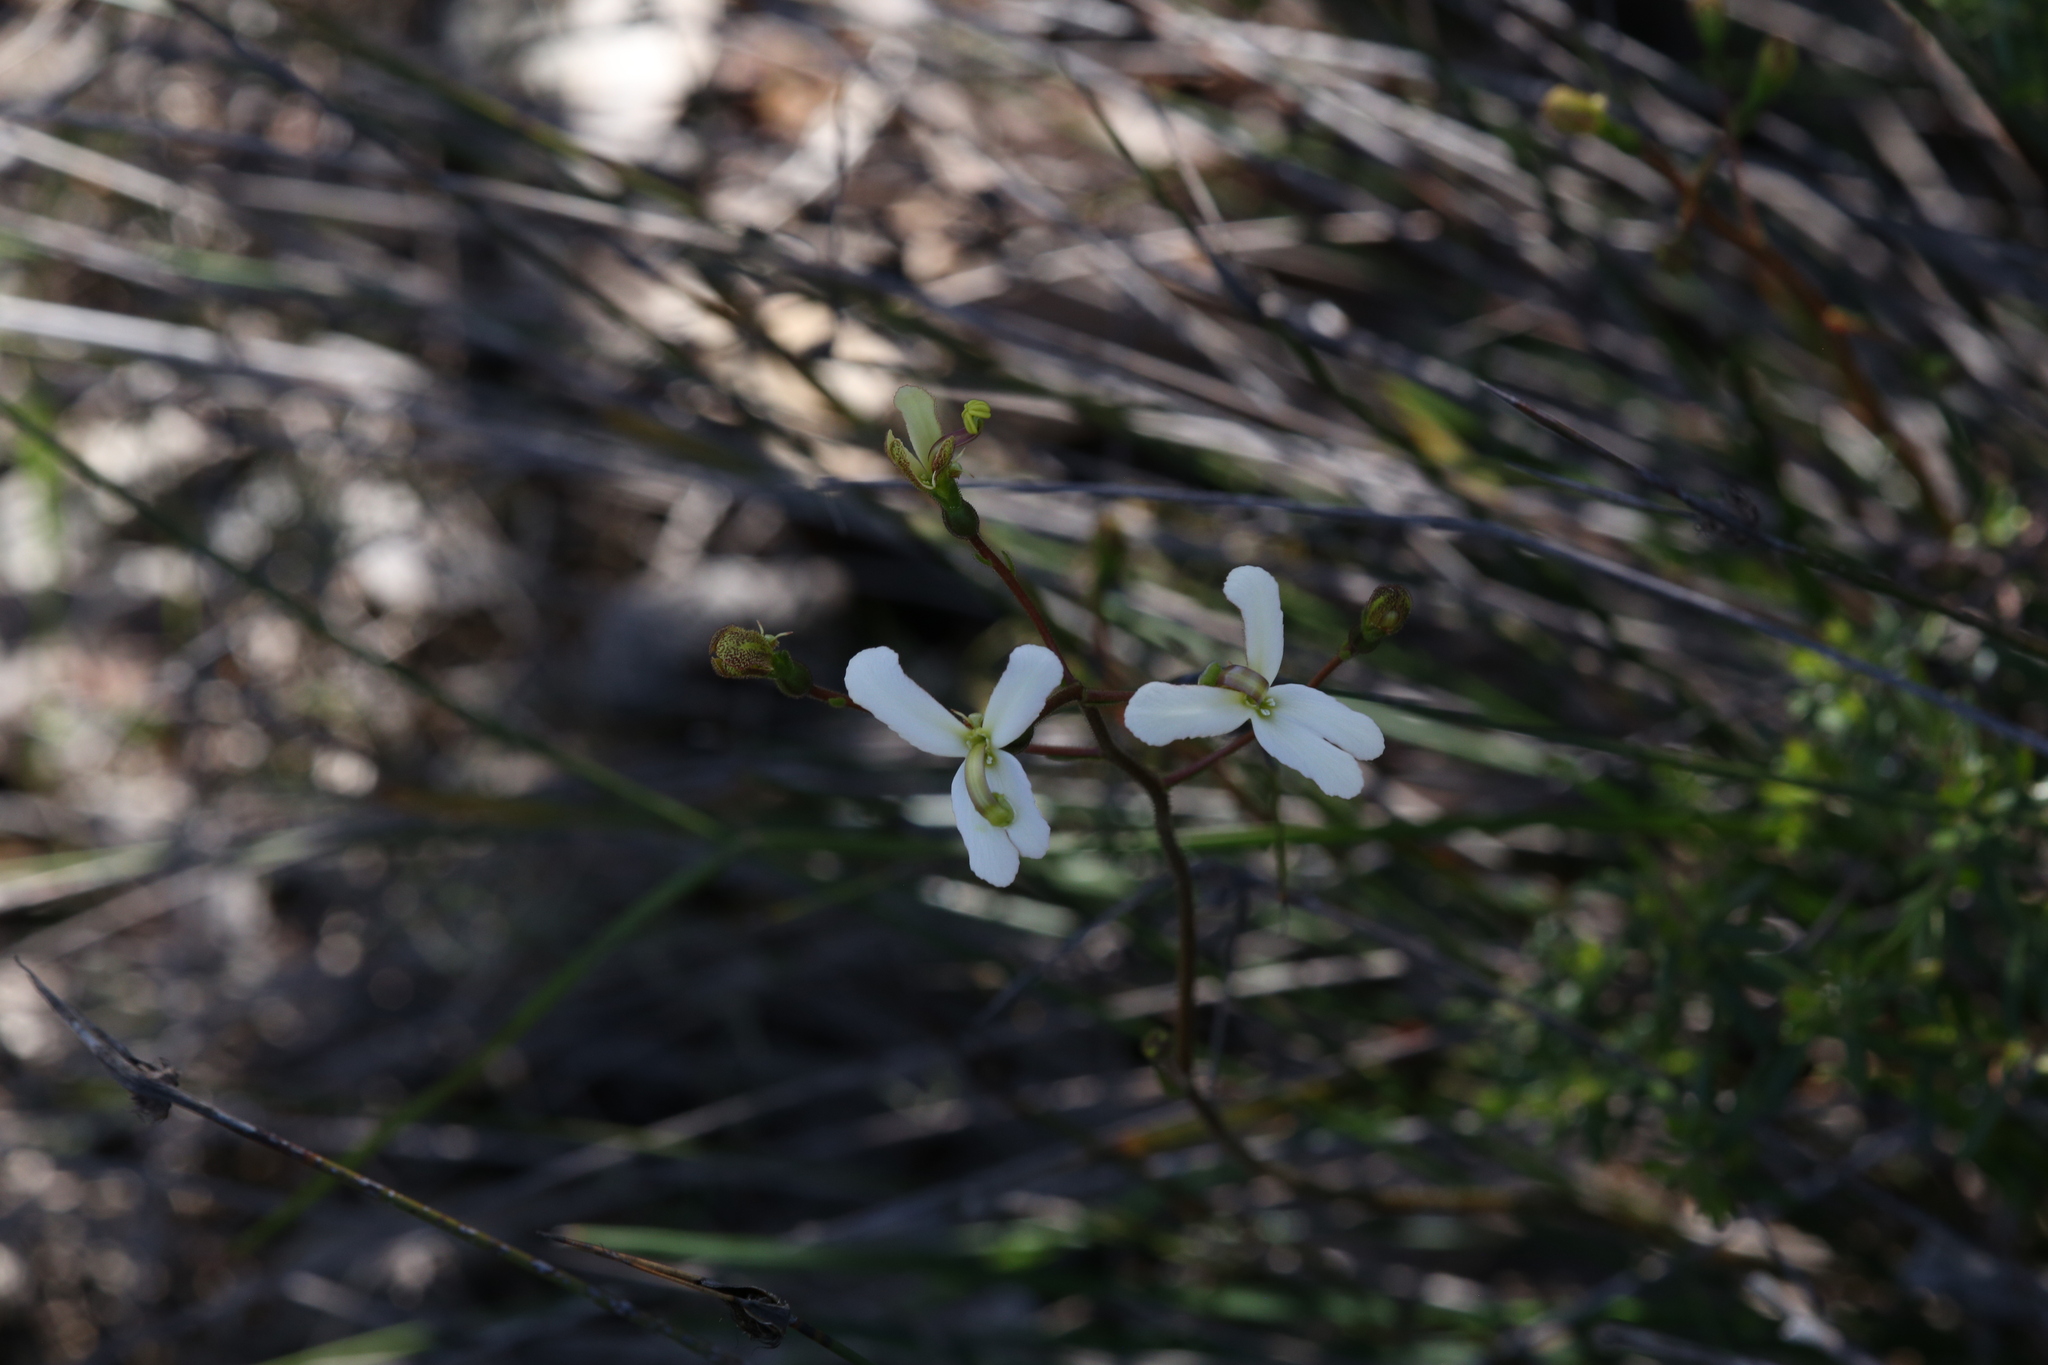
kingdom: Plantae
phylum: Tracheophyta
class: Magnoliopsida
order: Asterales
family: Stylidiaceae
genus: Stylidium
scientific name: Stylidium schoenoides
